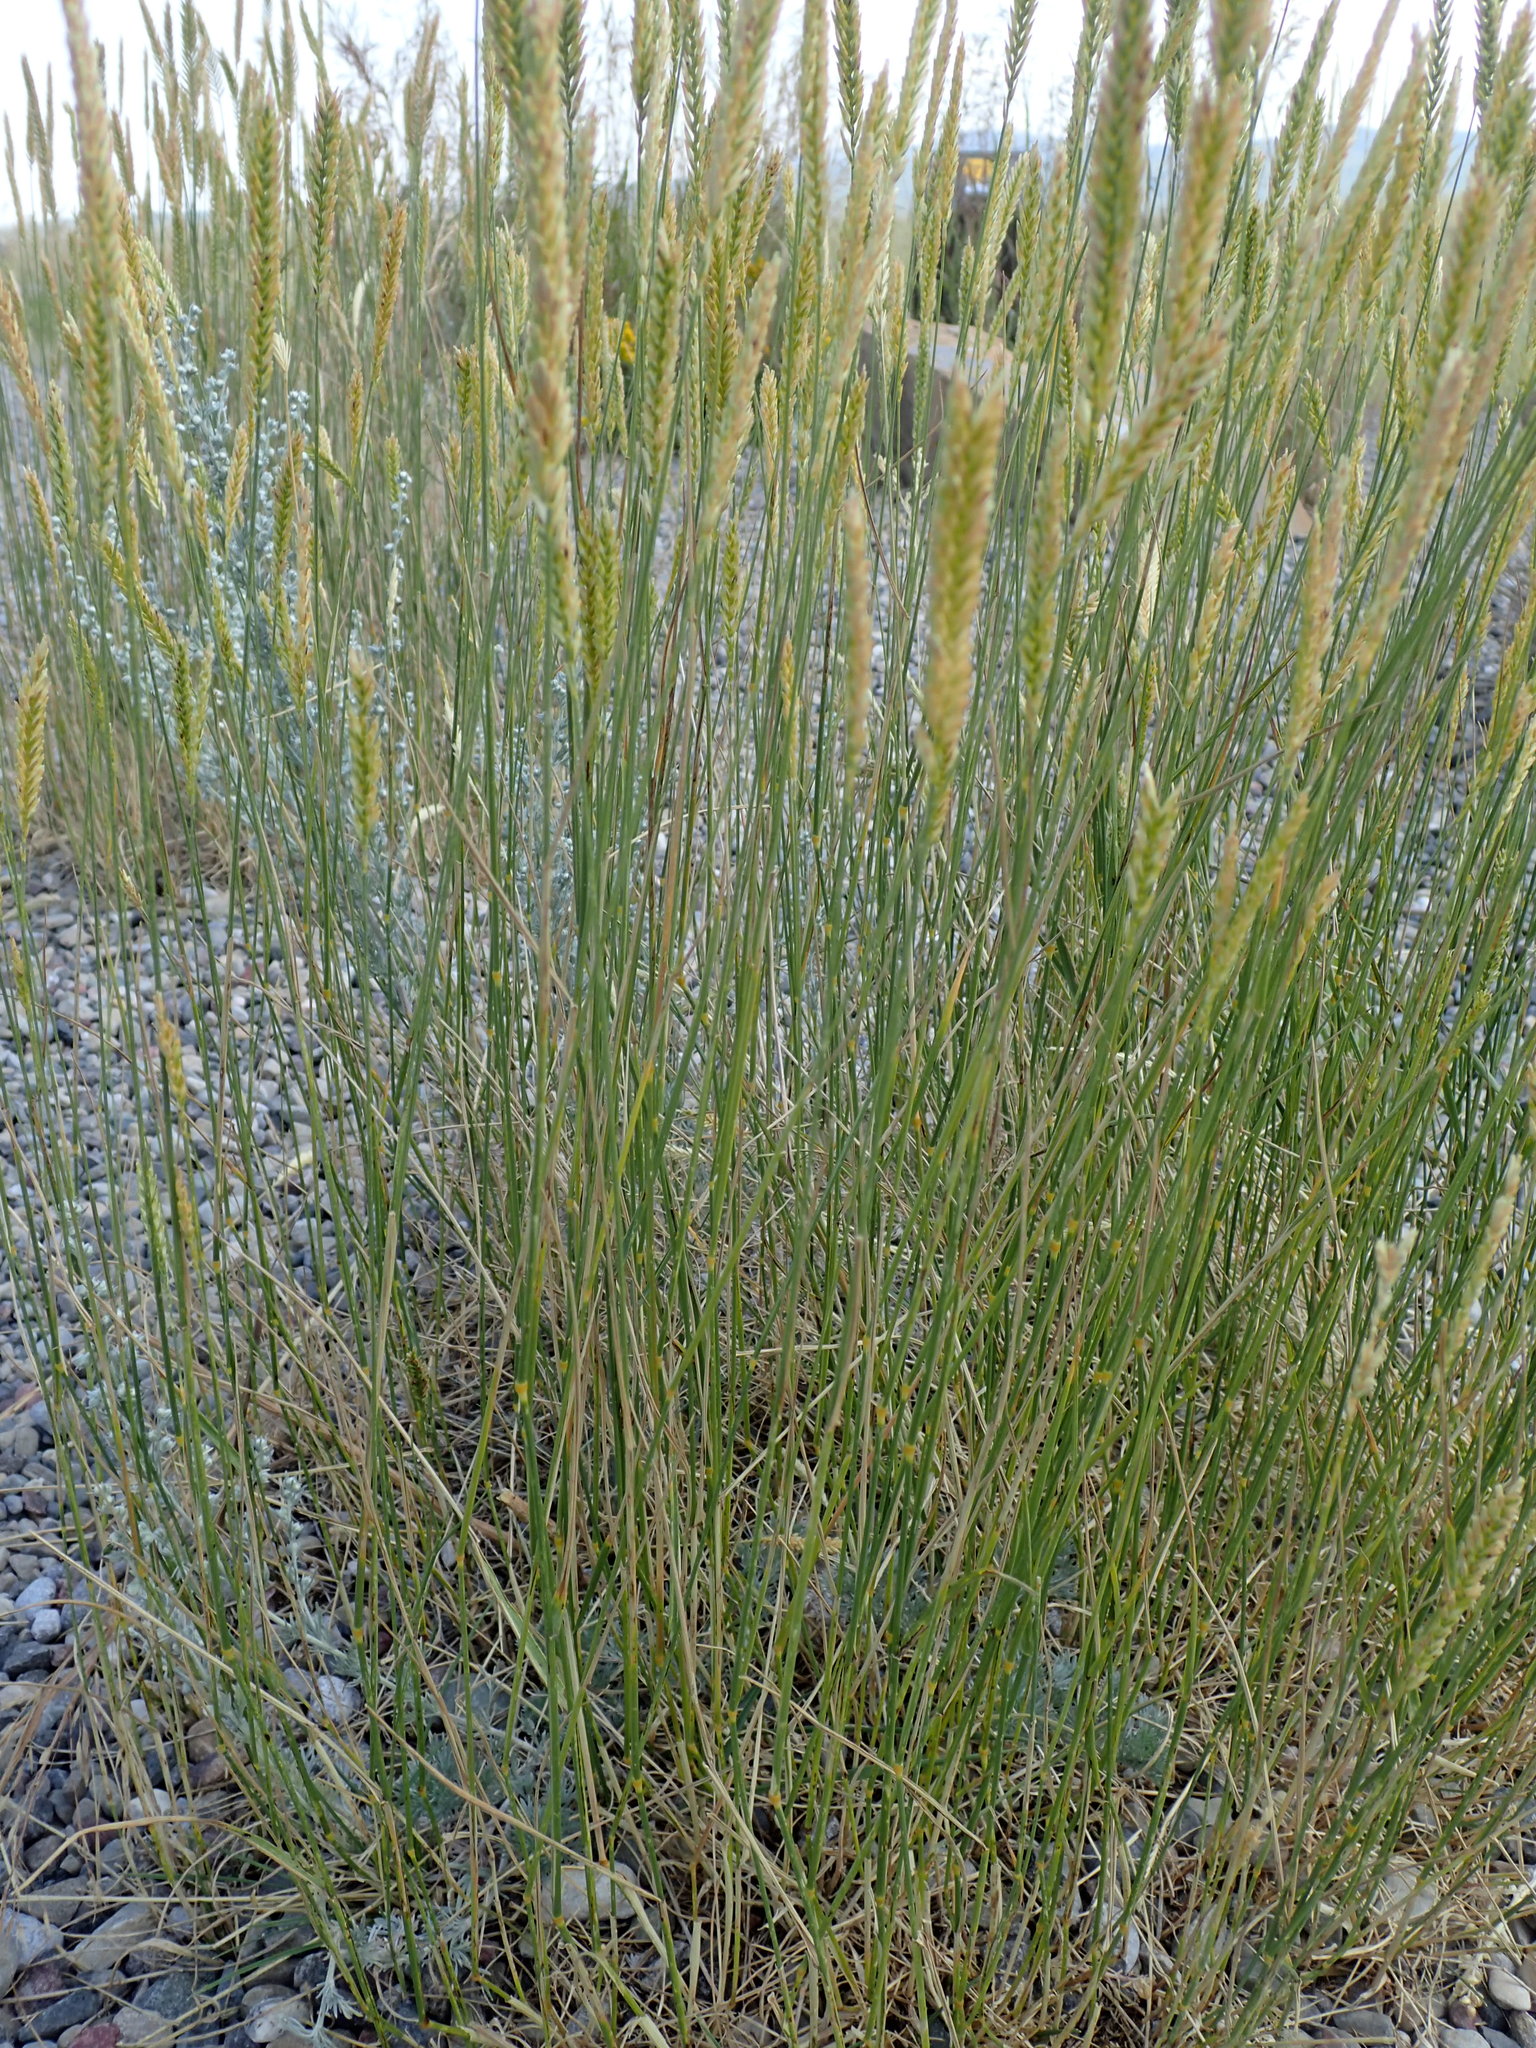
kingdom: Plantae
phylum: Tracheophyta
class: Liliopsida
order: Poales
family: Poaceae
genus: Agropyron
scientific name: Agropyron cristatum
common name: Crested wheatgrass
